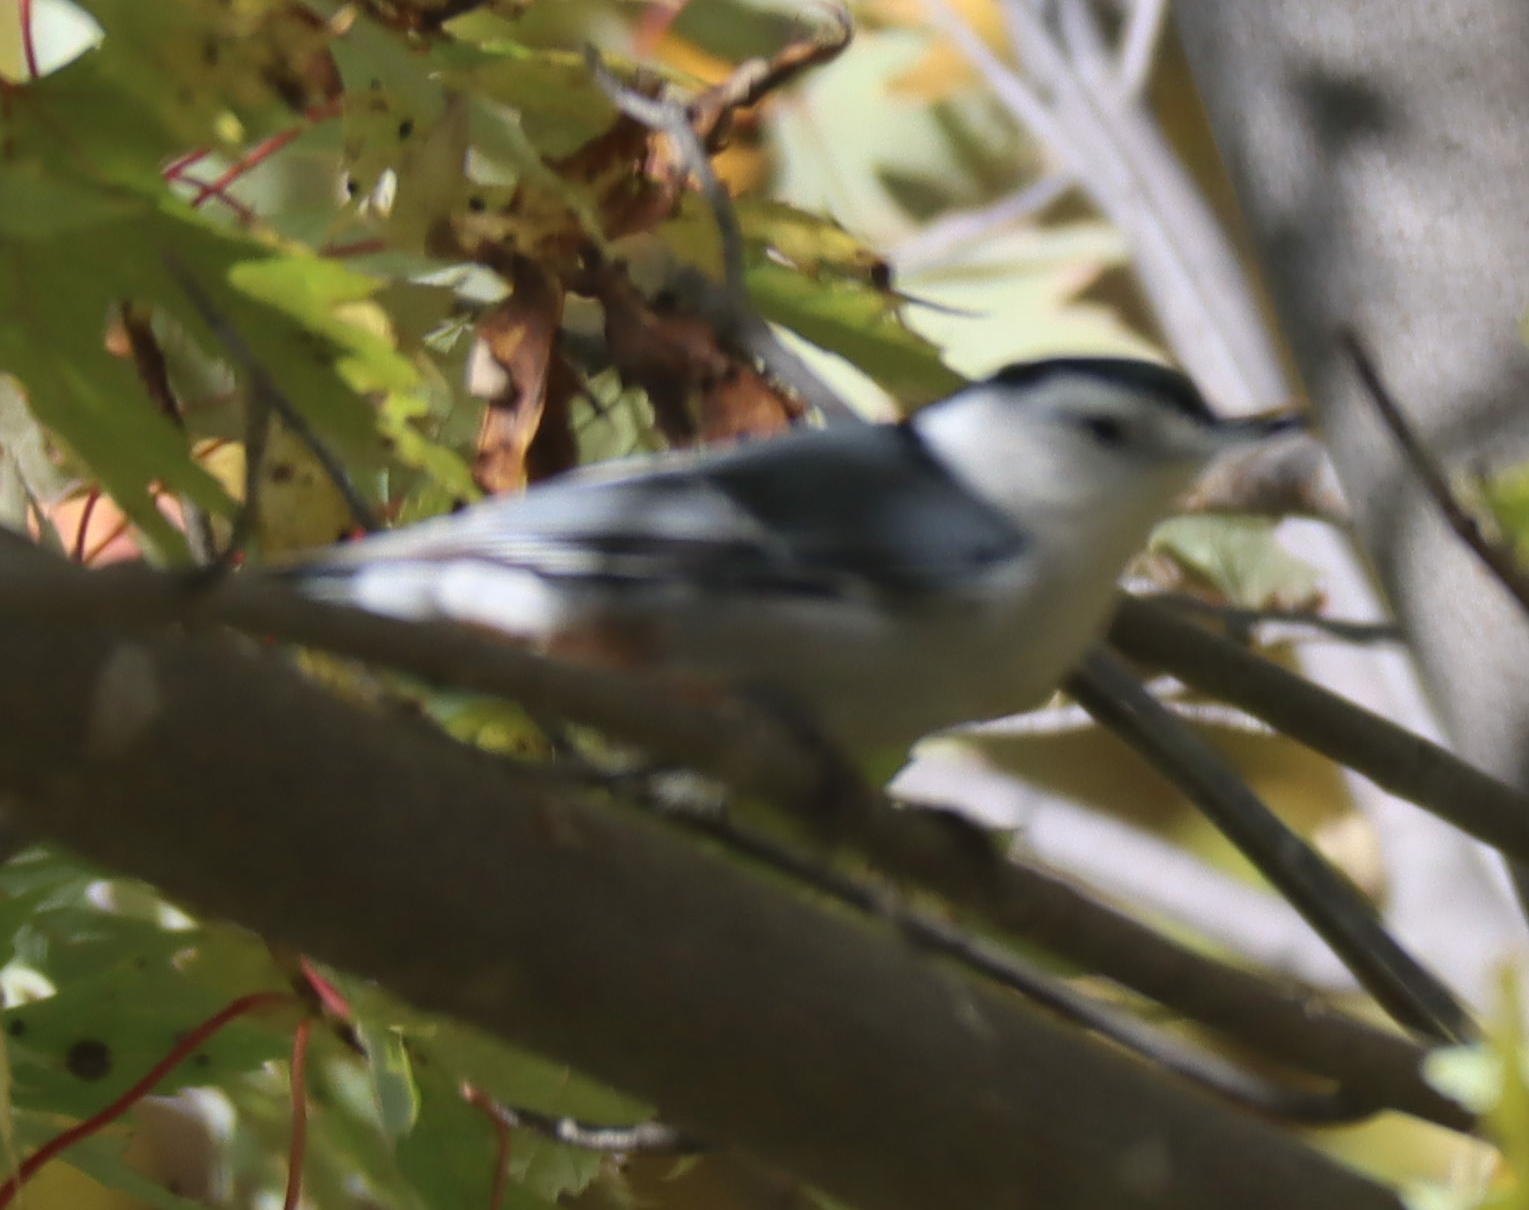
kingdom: Animalia
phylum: Chordata
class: Aves
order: Passeriformes
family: Sittidae
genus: Sitta
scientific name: Sitta carolinensis
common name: White-breasted nuthatch
